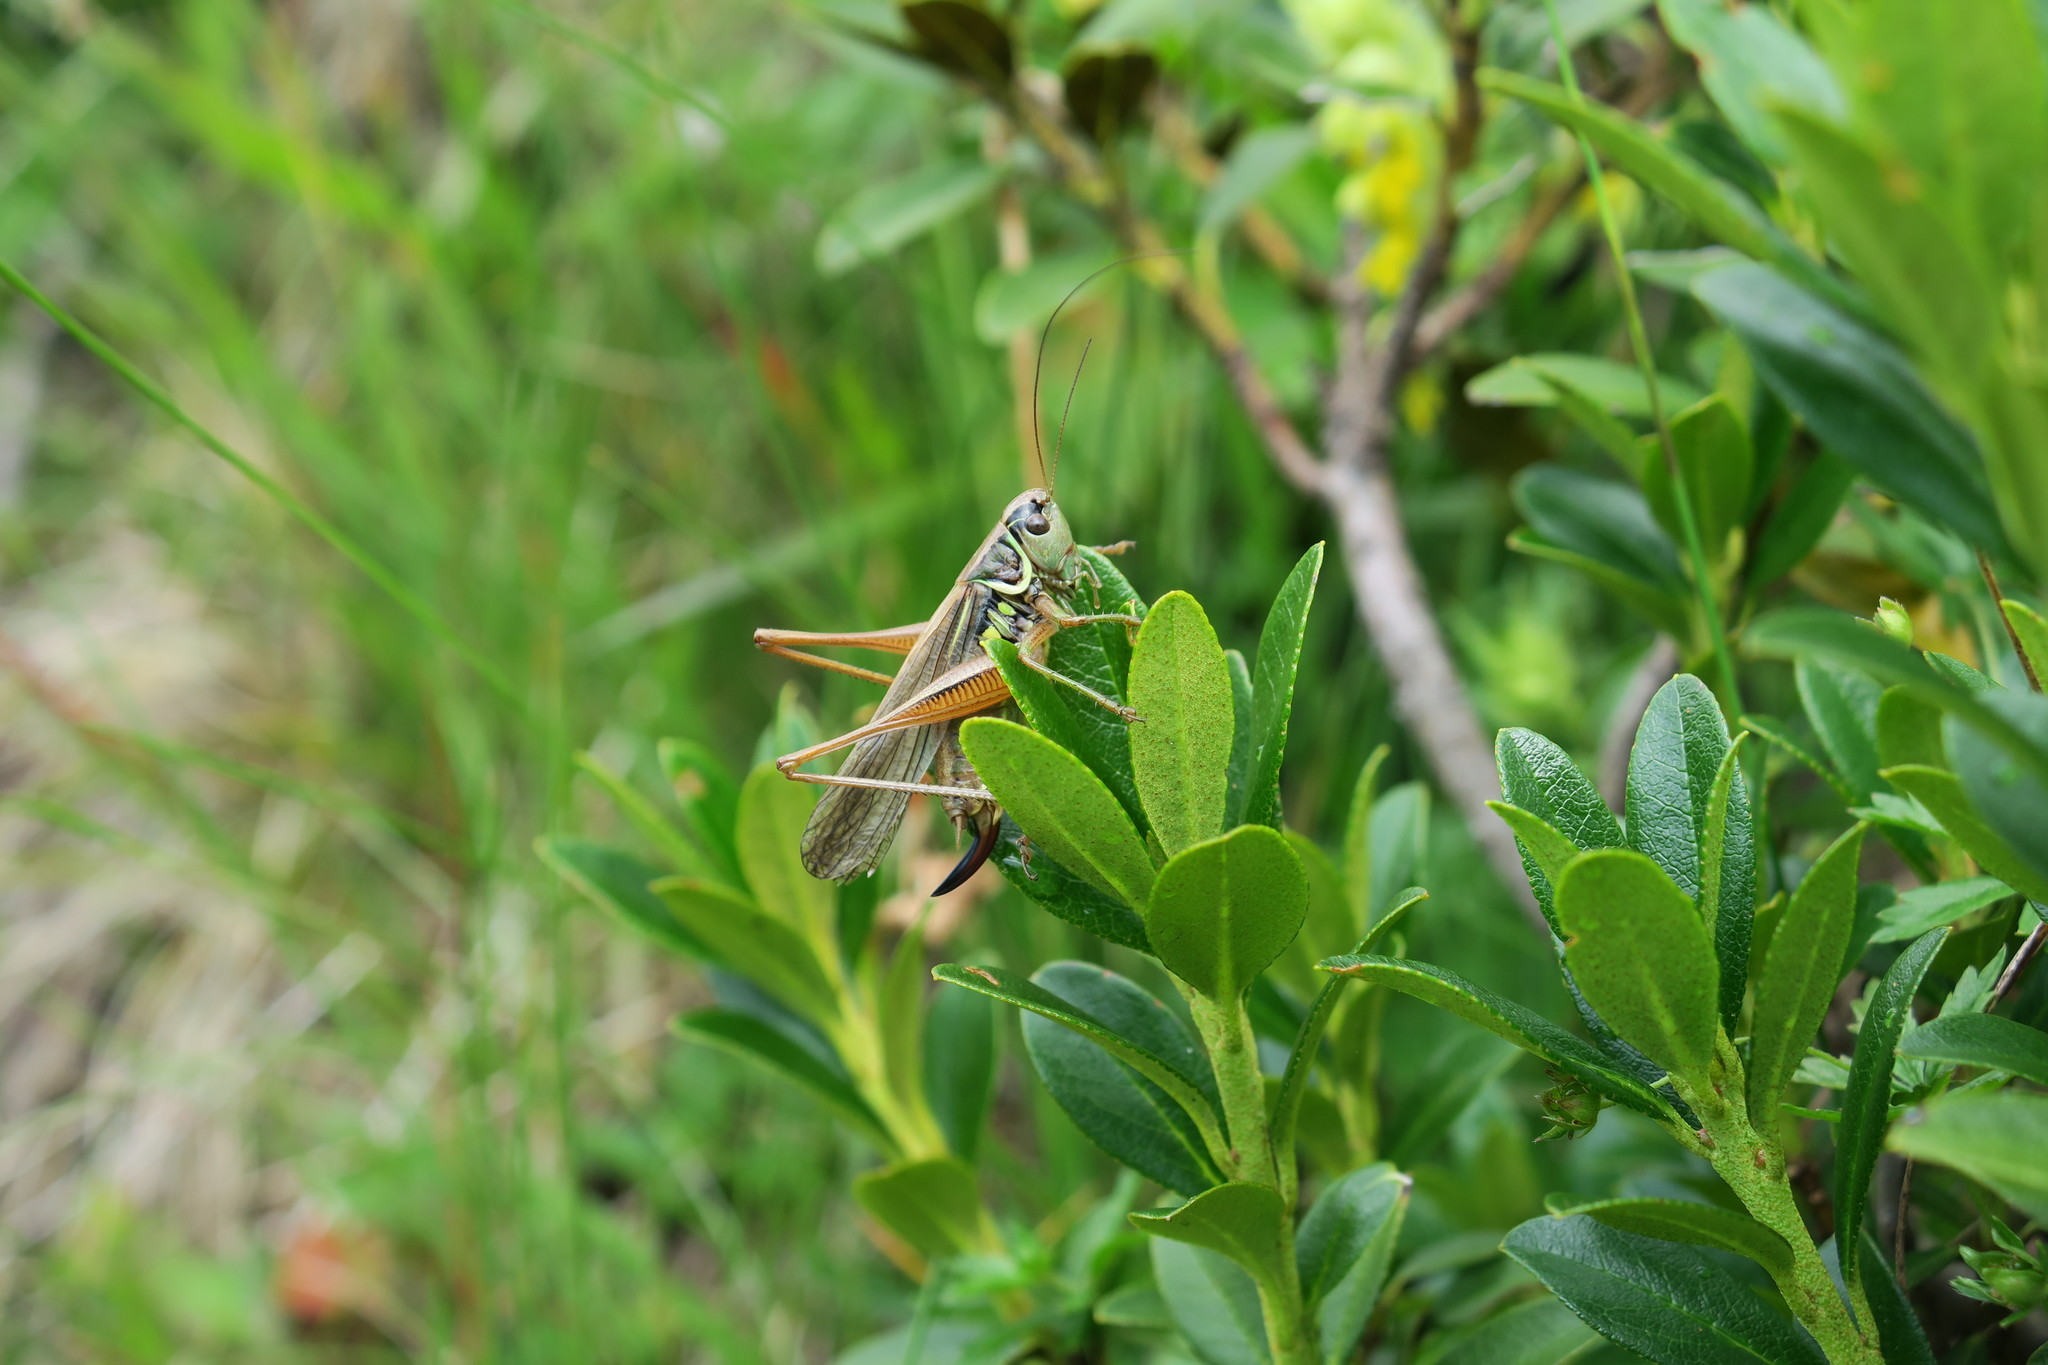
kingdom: Animalia
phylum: Arthropoda
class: Insecta
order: Orthoptera
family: Tettigoniidae
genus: Roeseliana
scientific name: Roeseliana roeselii
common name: Roesel's bush cricket
